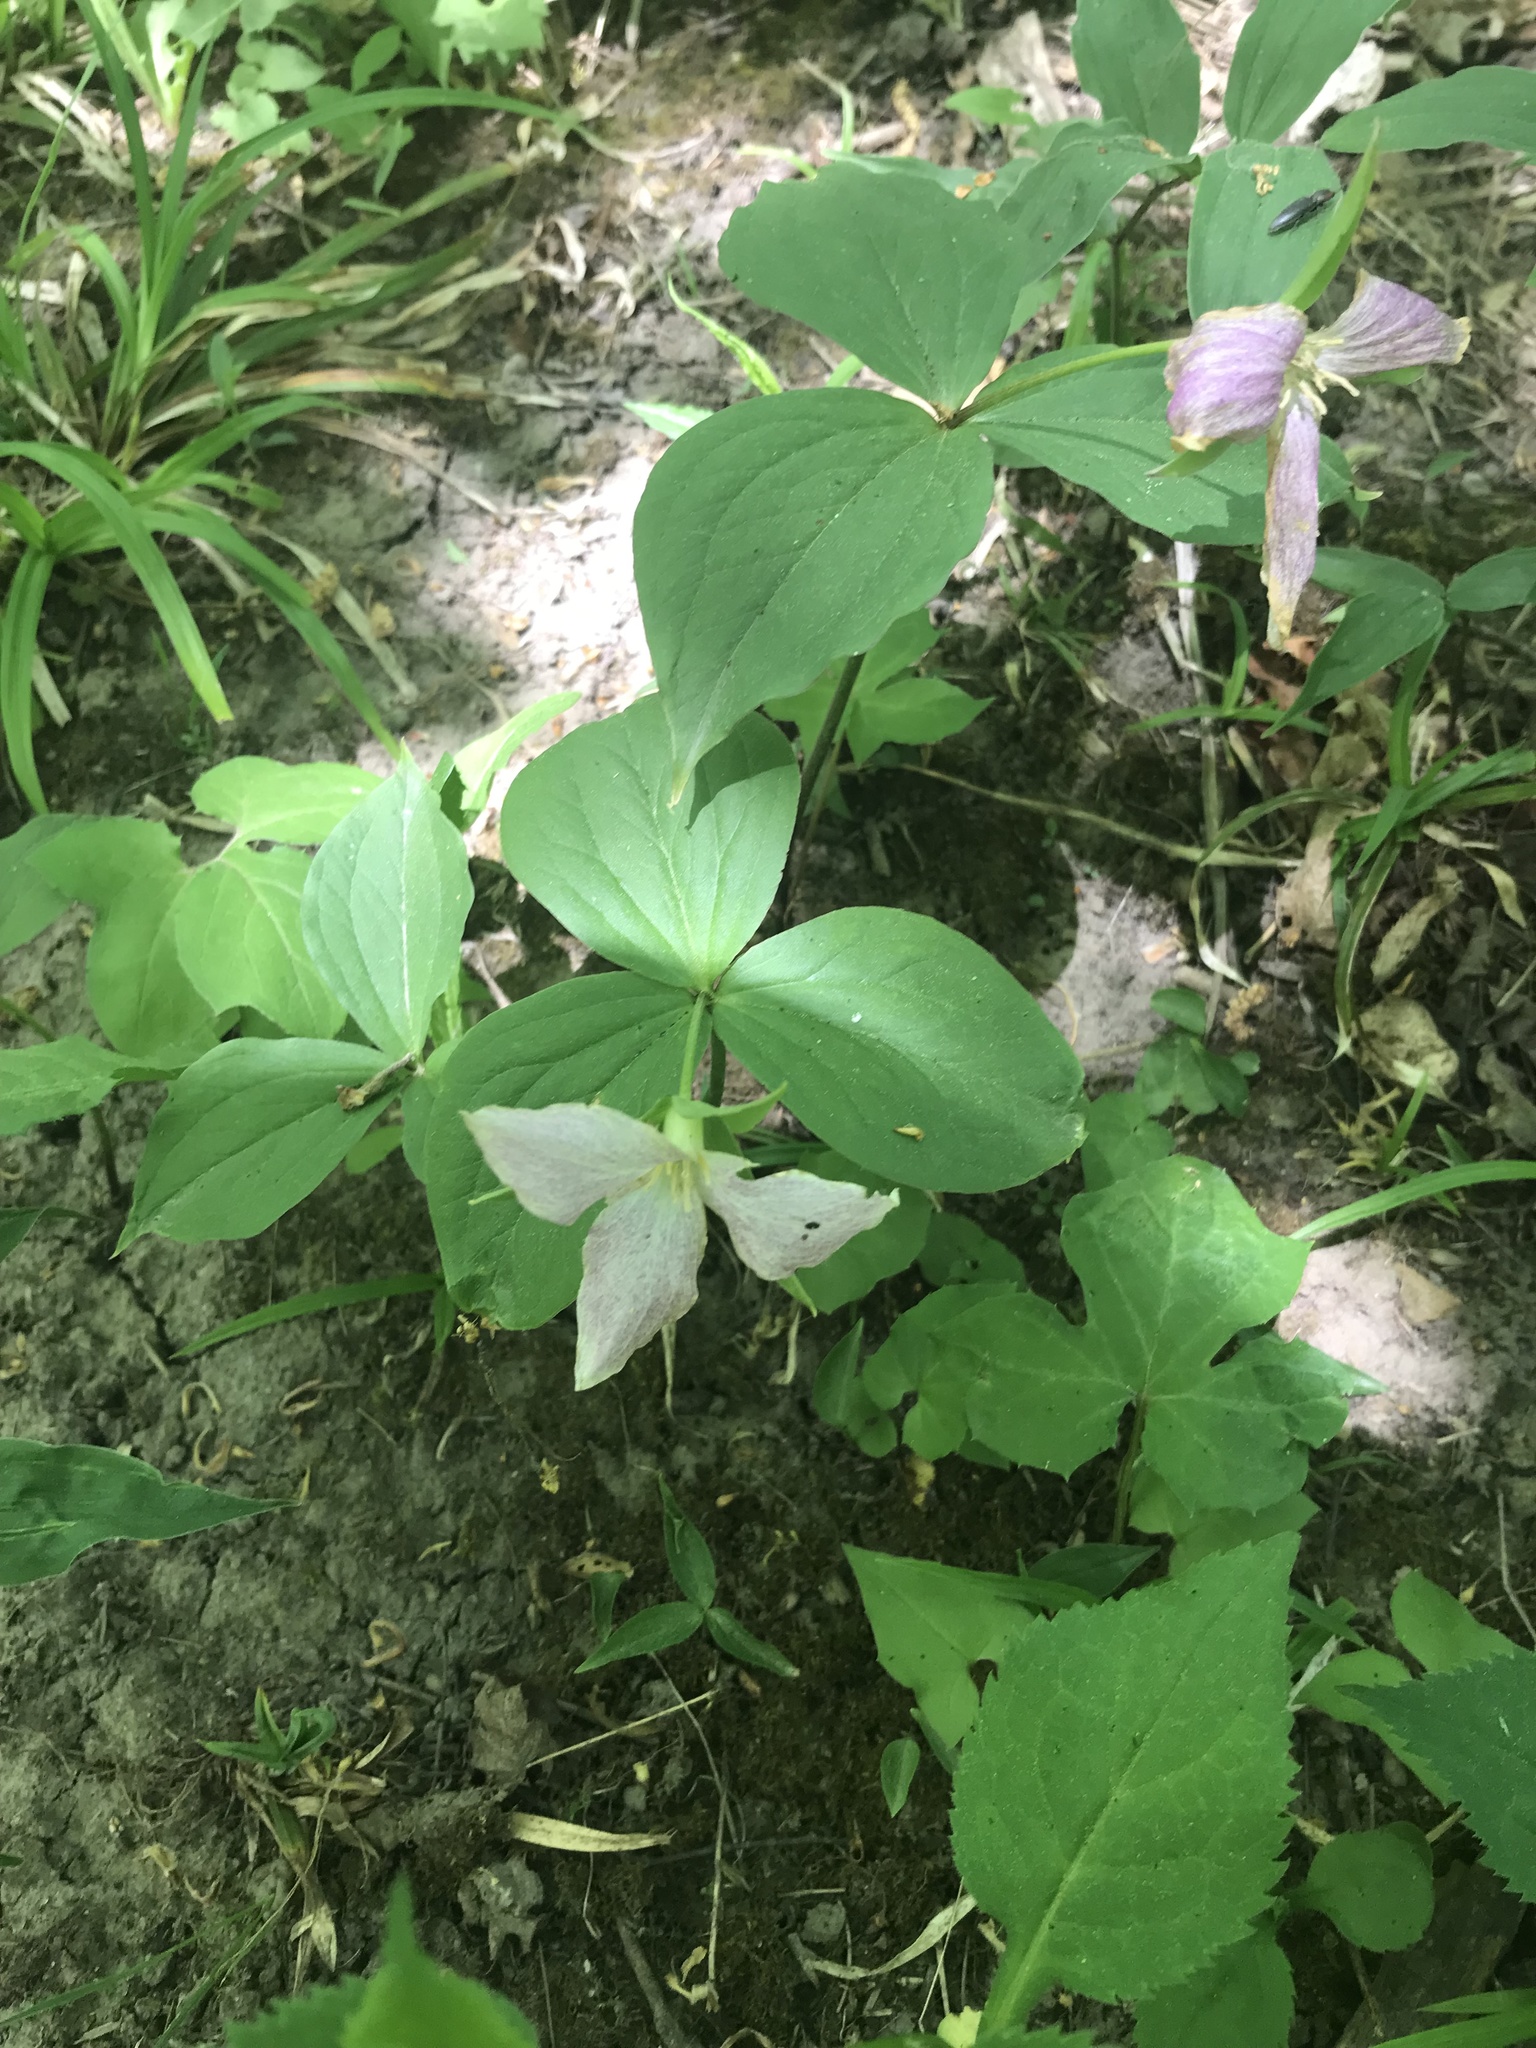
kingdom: Plantae
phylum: Tracheophyta
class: Liliopsida
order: Liliales
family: Melanthiaceae
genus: Trillium
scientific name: Trillium grandiflorum
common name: Great white trillium
